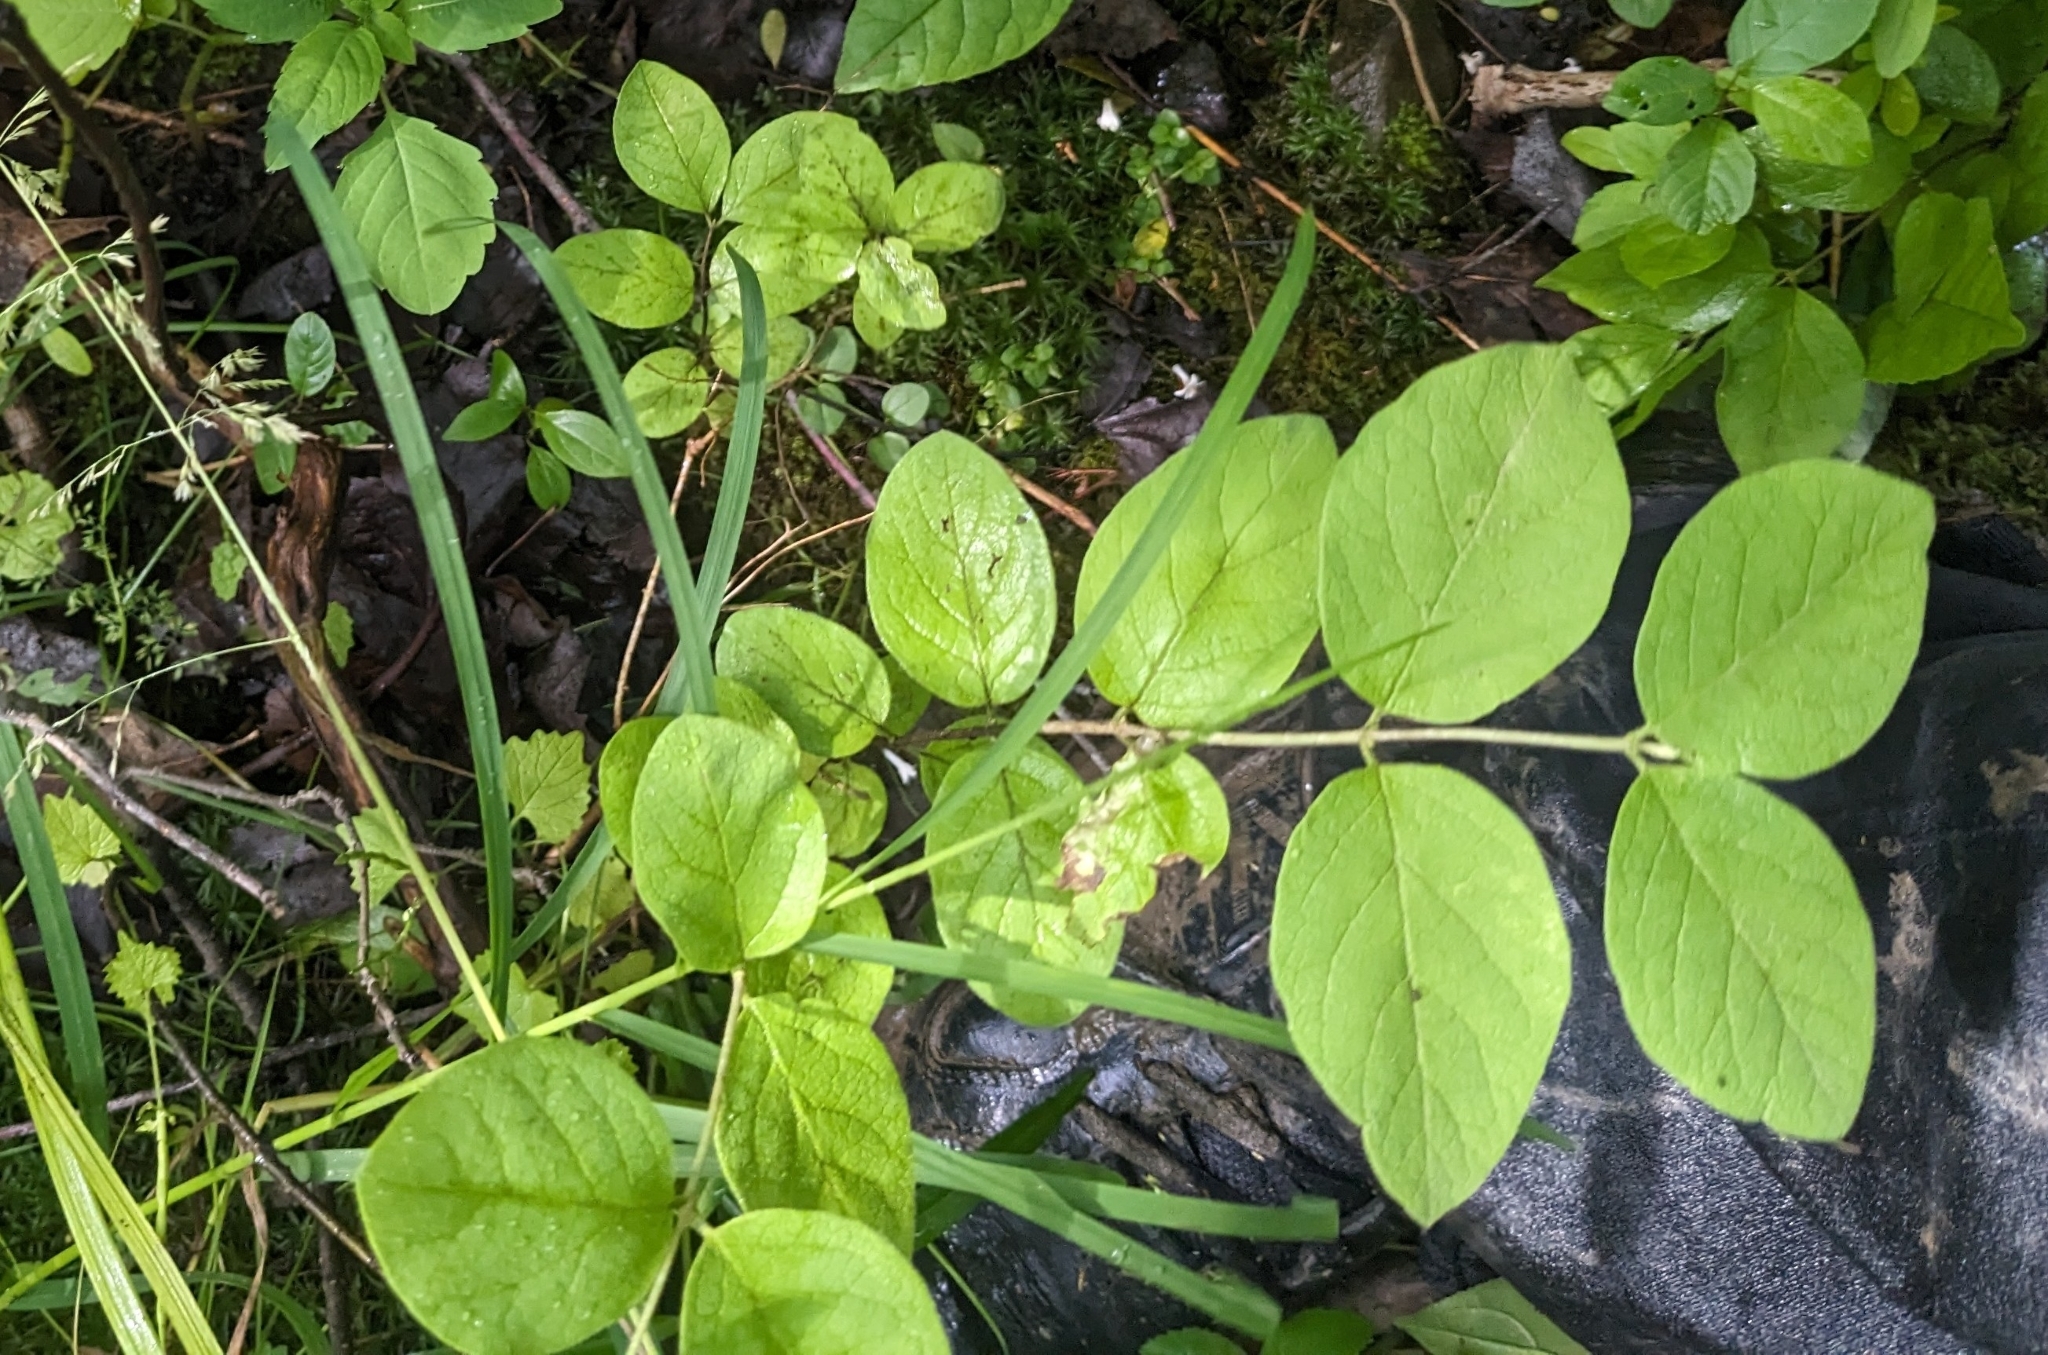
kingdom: Plantae
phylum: Tracheophyta
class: Magnoliopsida
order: Dipsacales
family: Caprifoliaceae
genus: Lonicera
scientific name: Lonicera
